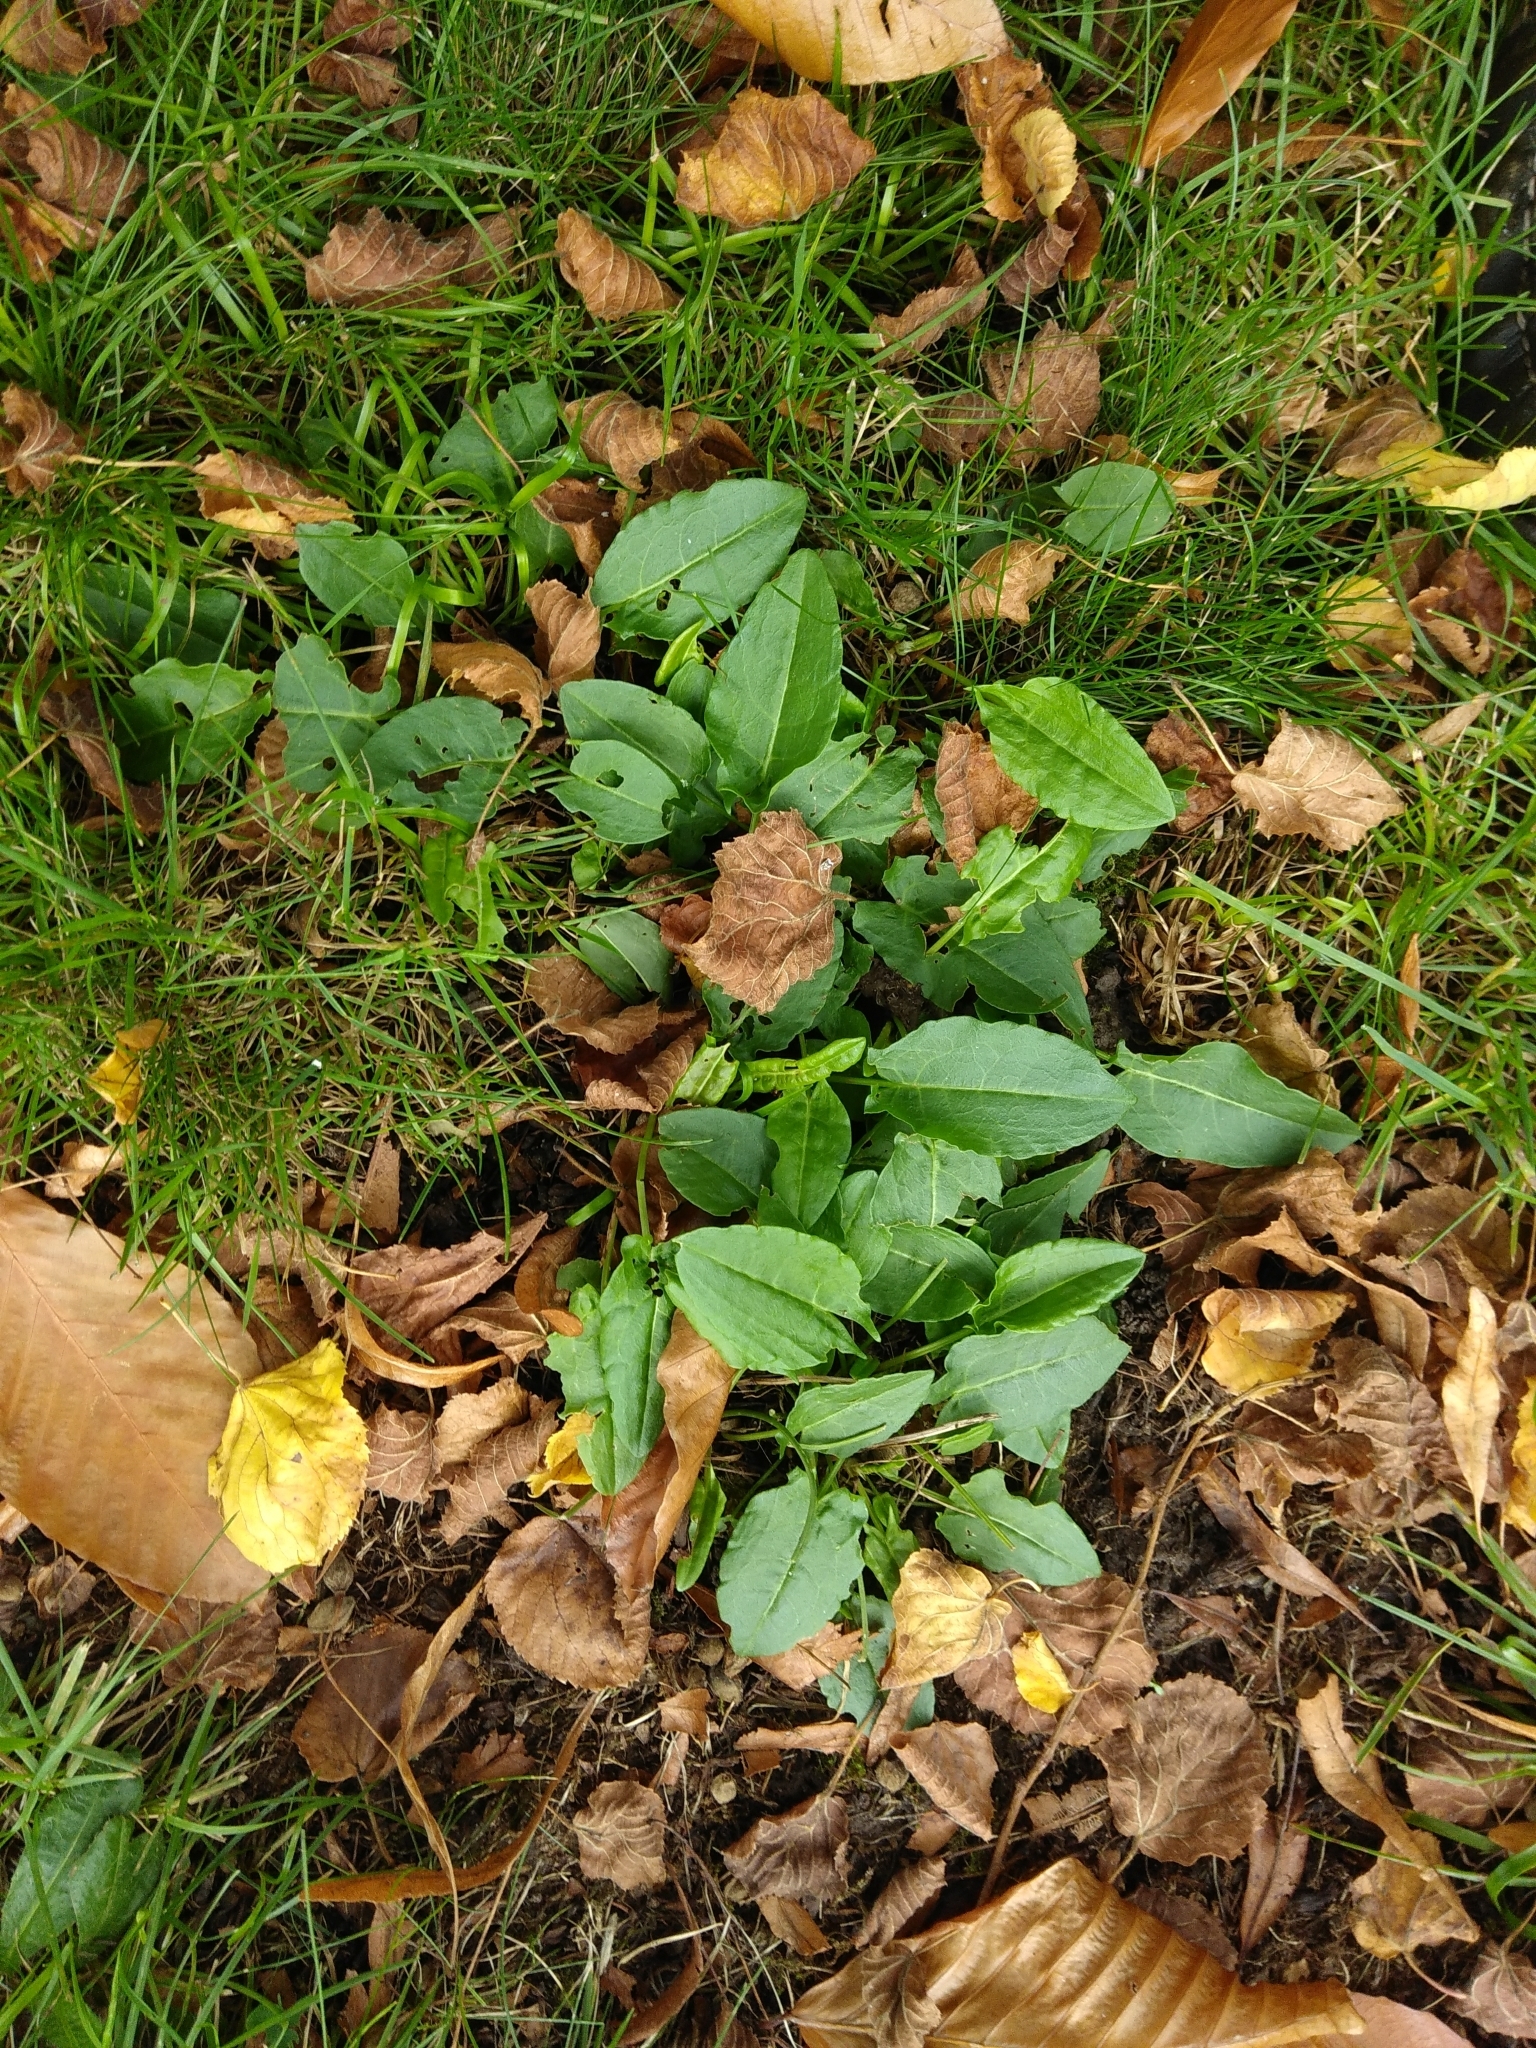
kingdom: Plantae
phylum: Tracheophyta
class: Magnoliopsida
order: Caryophyllales
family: Polygonaceae
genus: Rumex
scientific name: Rumex acetosa
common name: Garden sorrel
